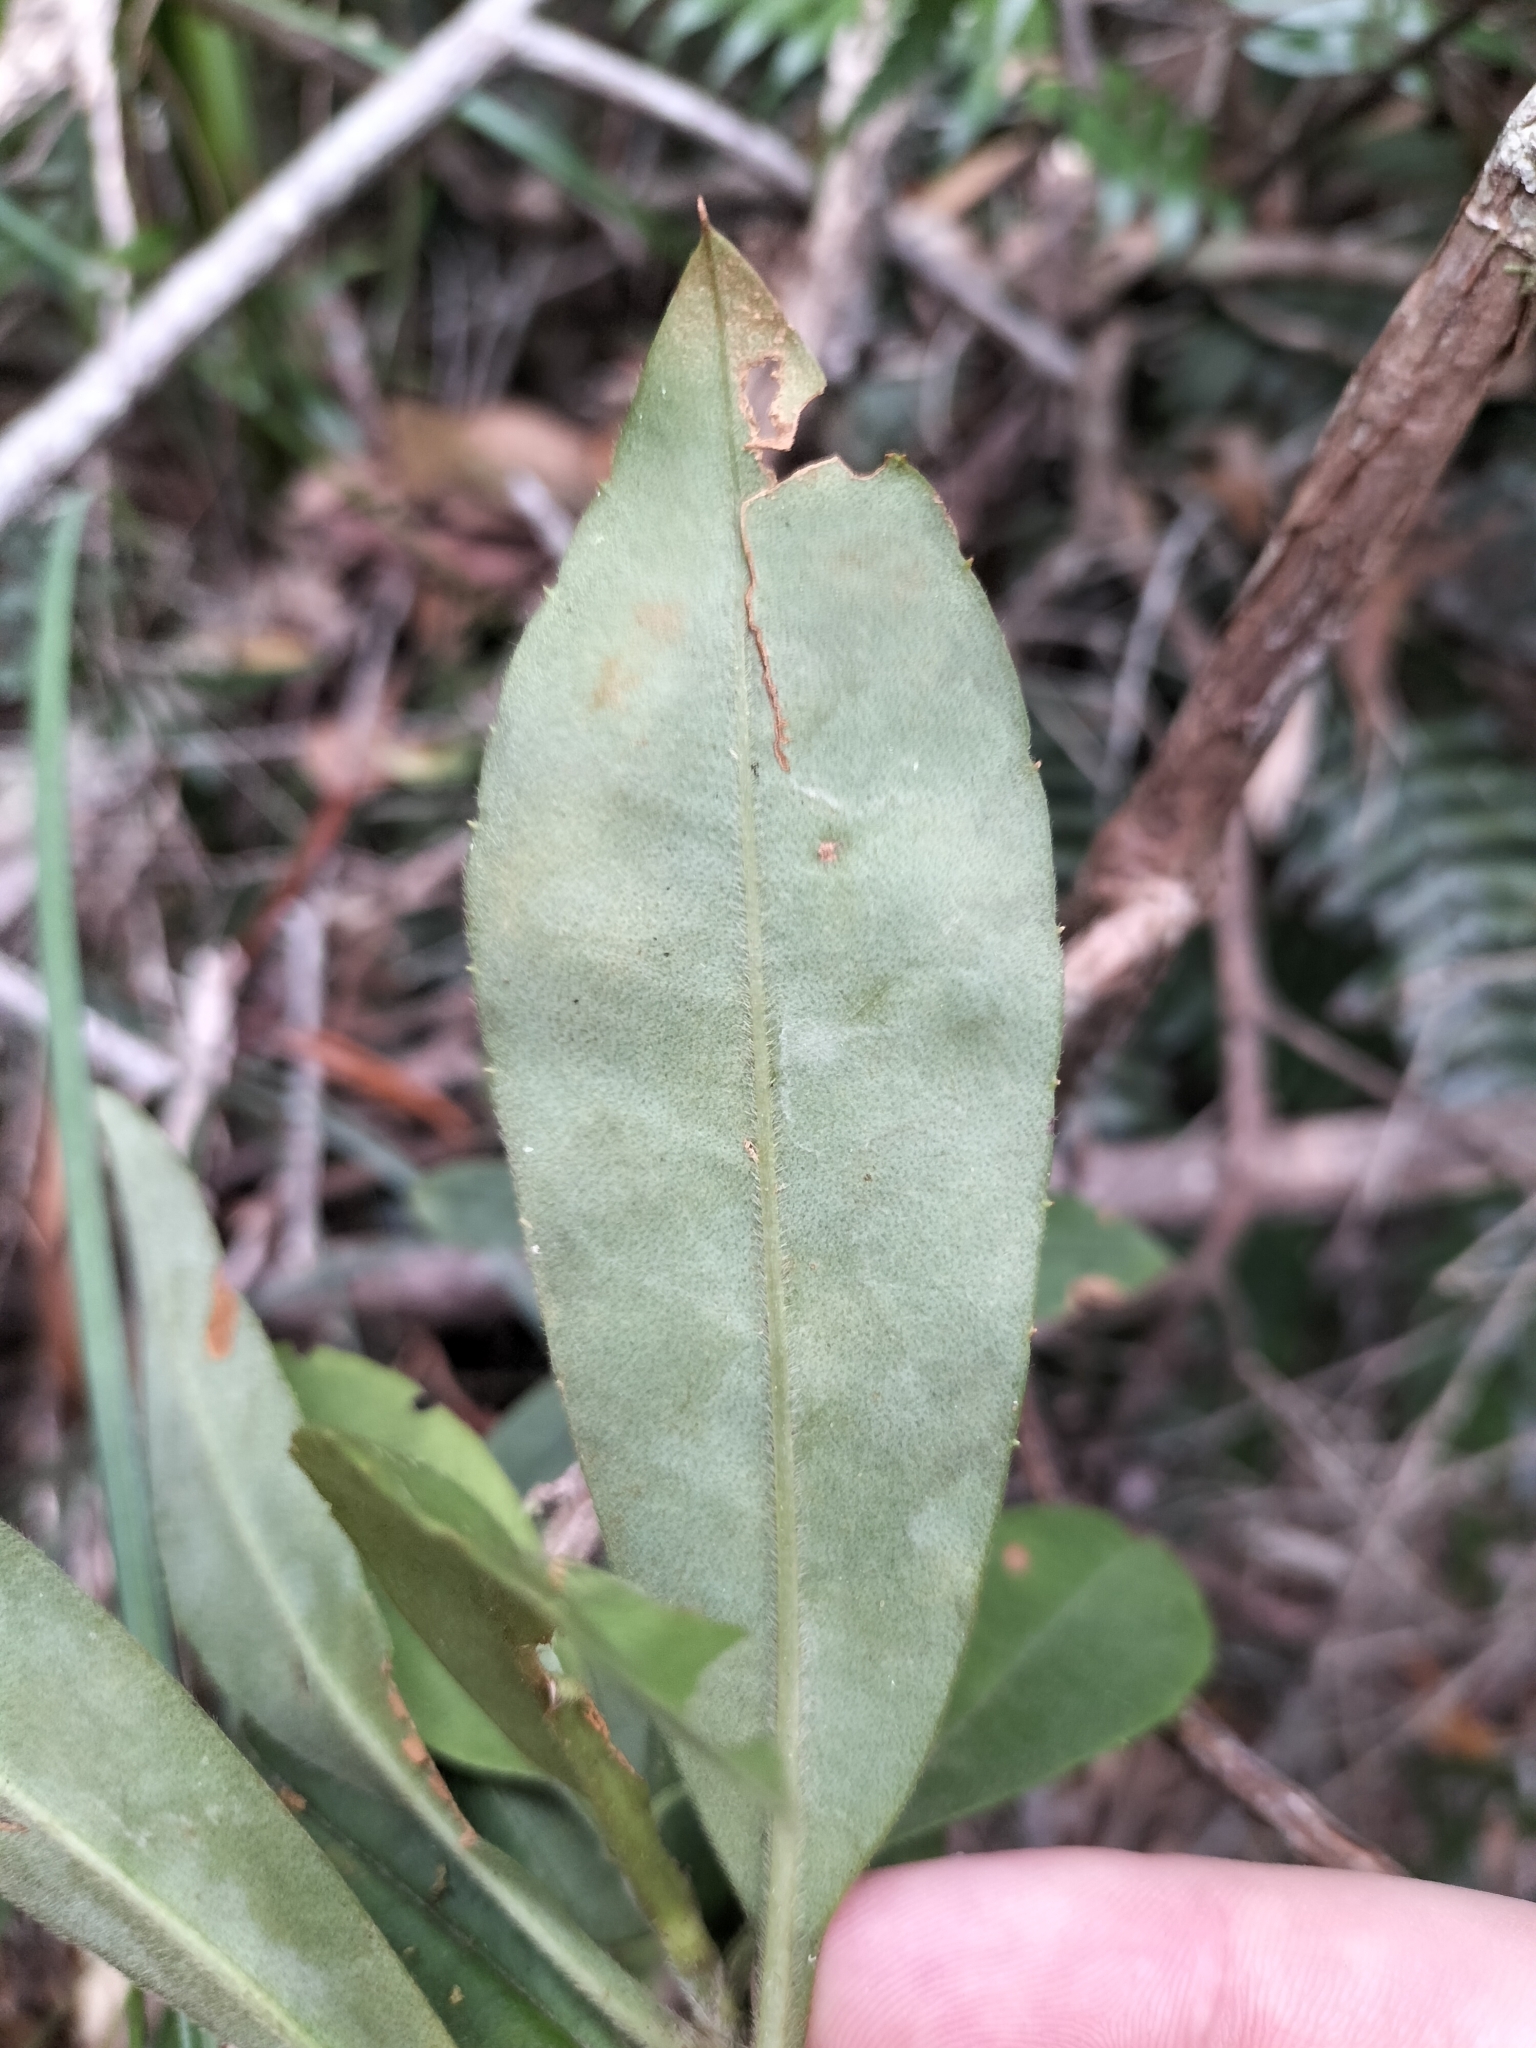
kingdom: Plantae
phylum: Tracheophyta
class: Magnoliopsida
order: Dilleniales
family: Dilleniaceae
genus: Hibbertia
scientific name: Hibbertia scandens
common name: Climbing guinea-flower
